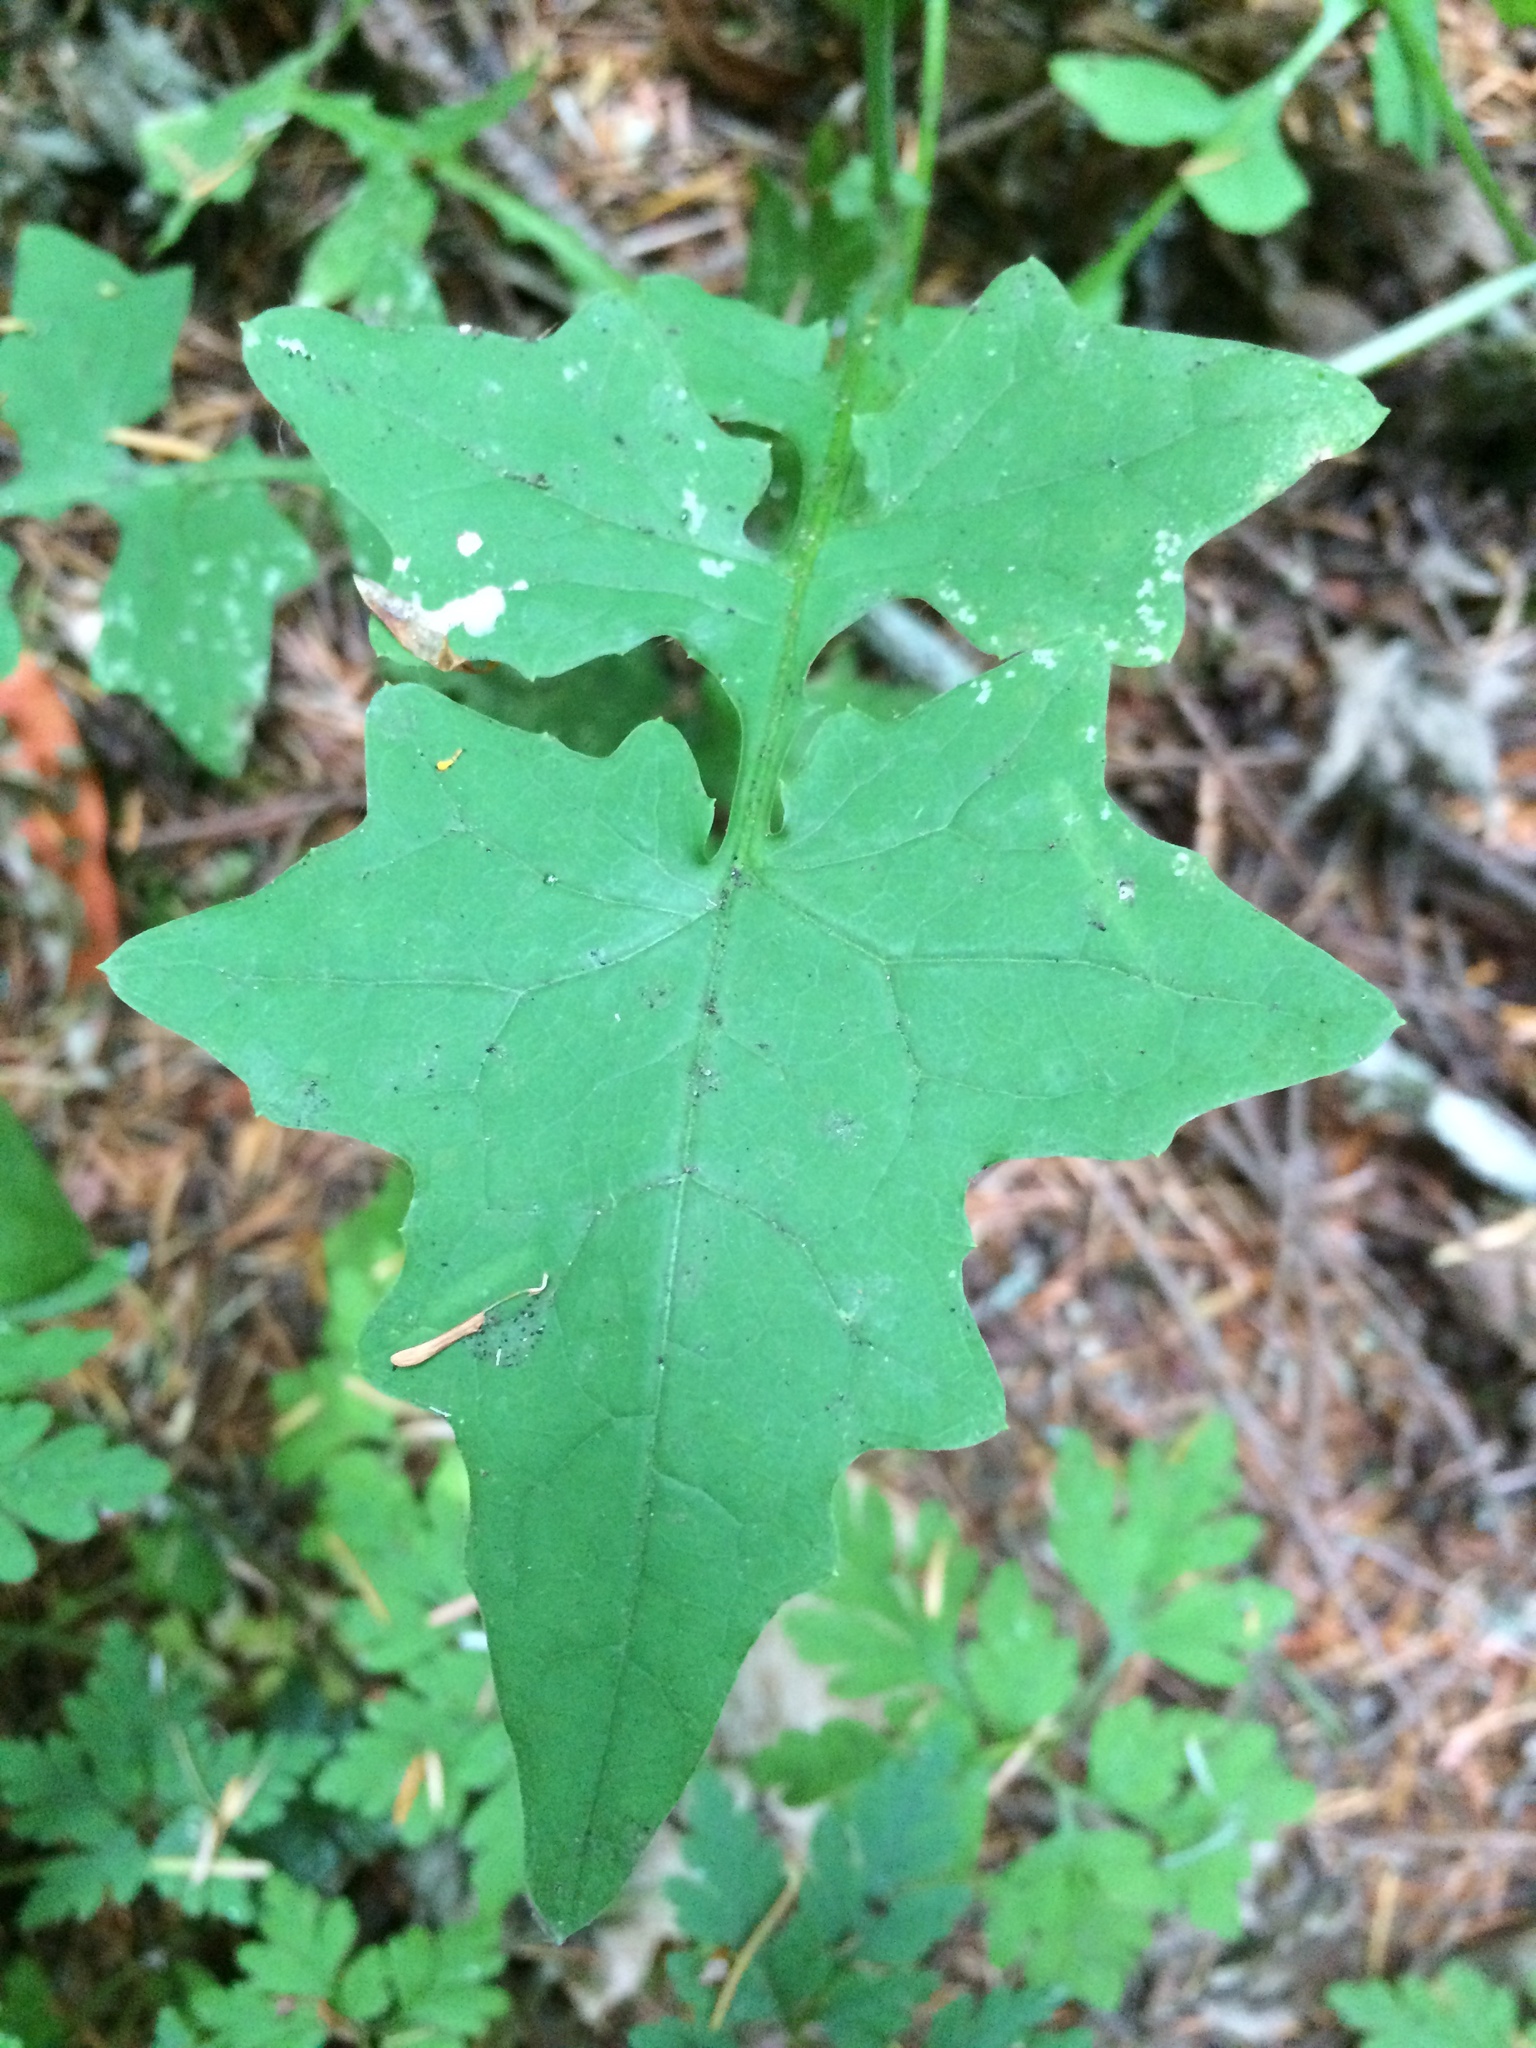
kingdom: Plantae
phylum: Tracheophyta
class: Magnoliopsida
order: Asterales
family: Asteraceae
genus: Mycelis
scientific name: Mycelis muralis
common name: Wall lettuce
